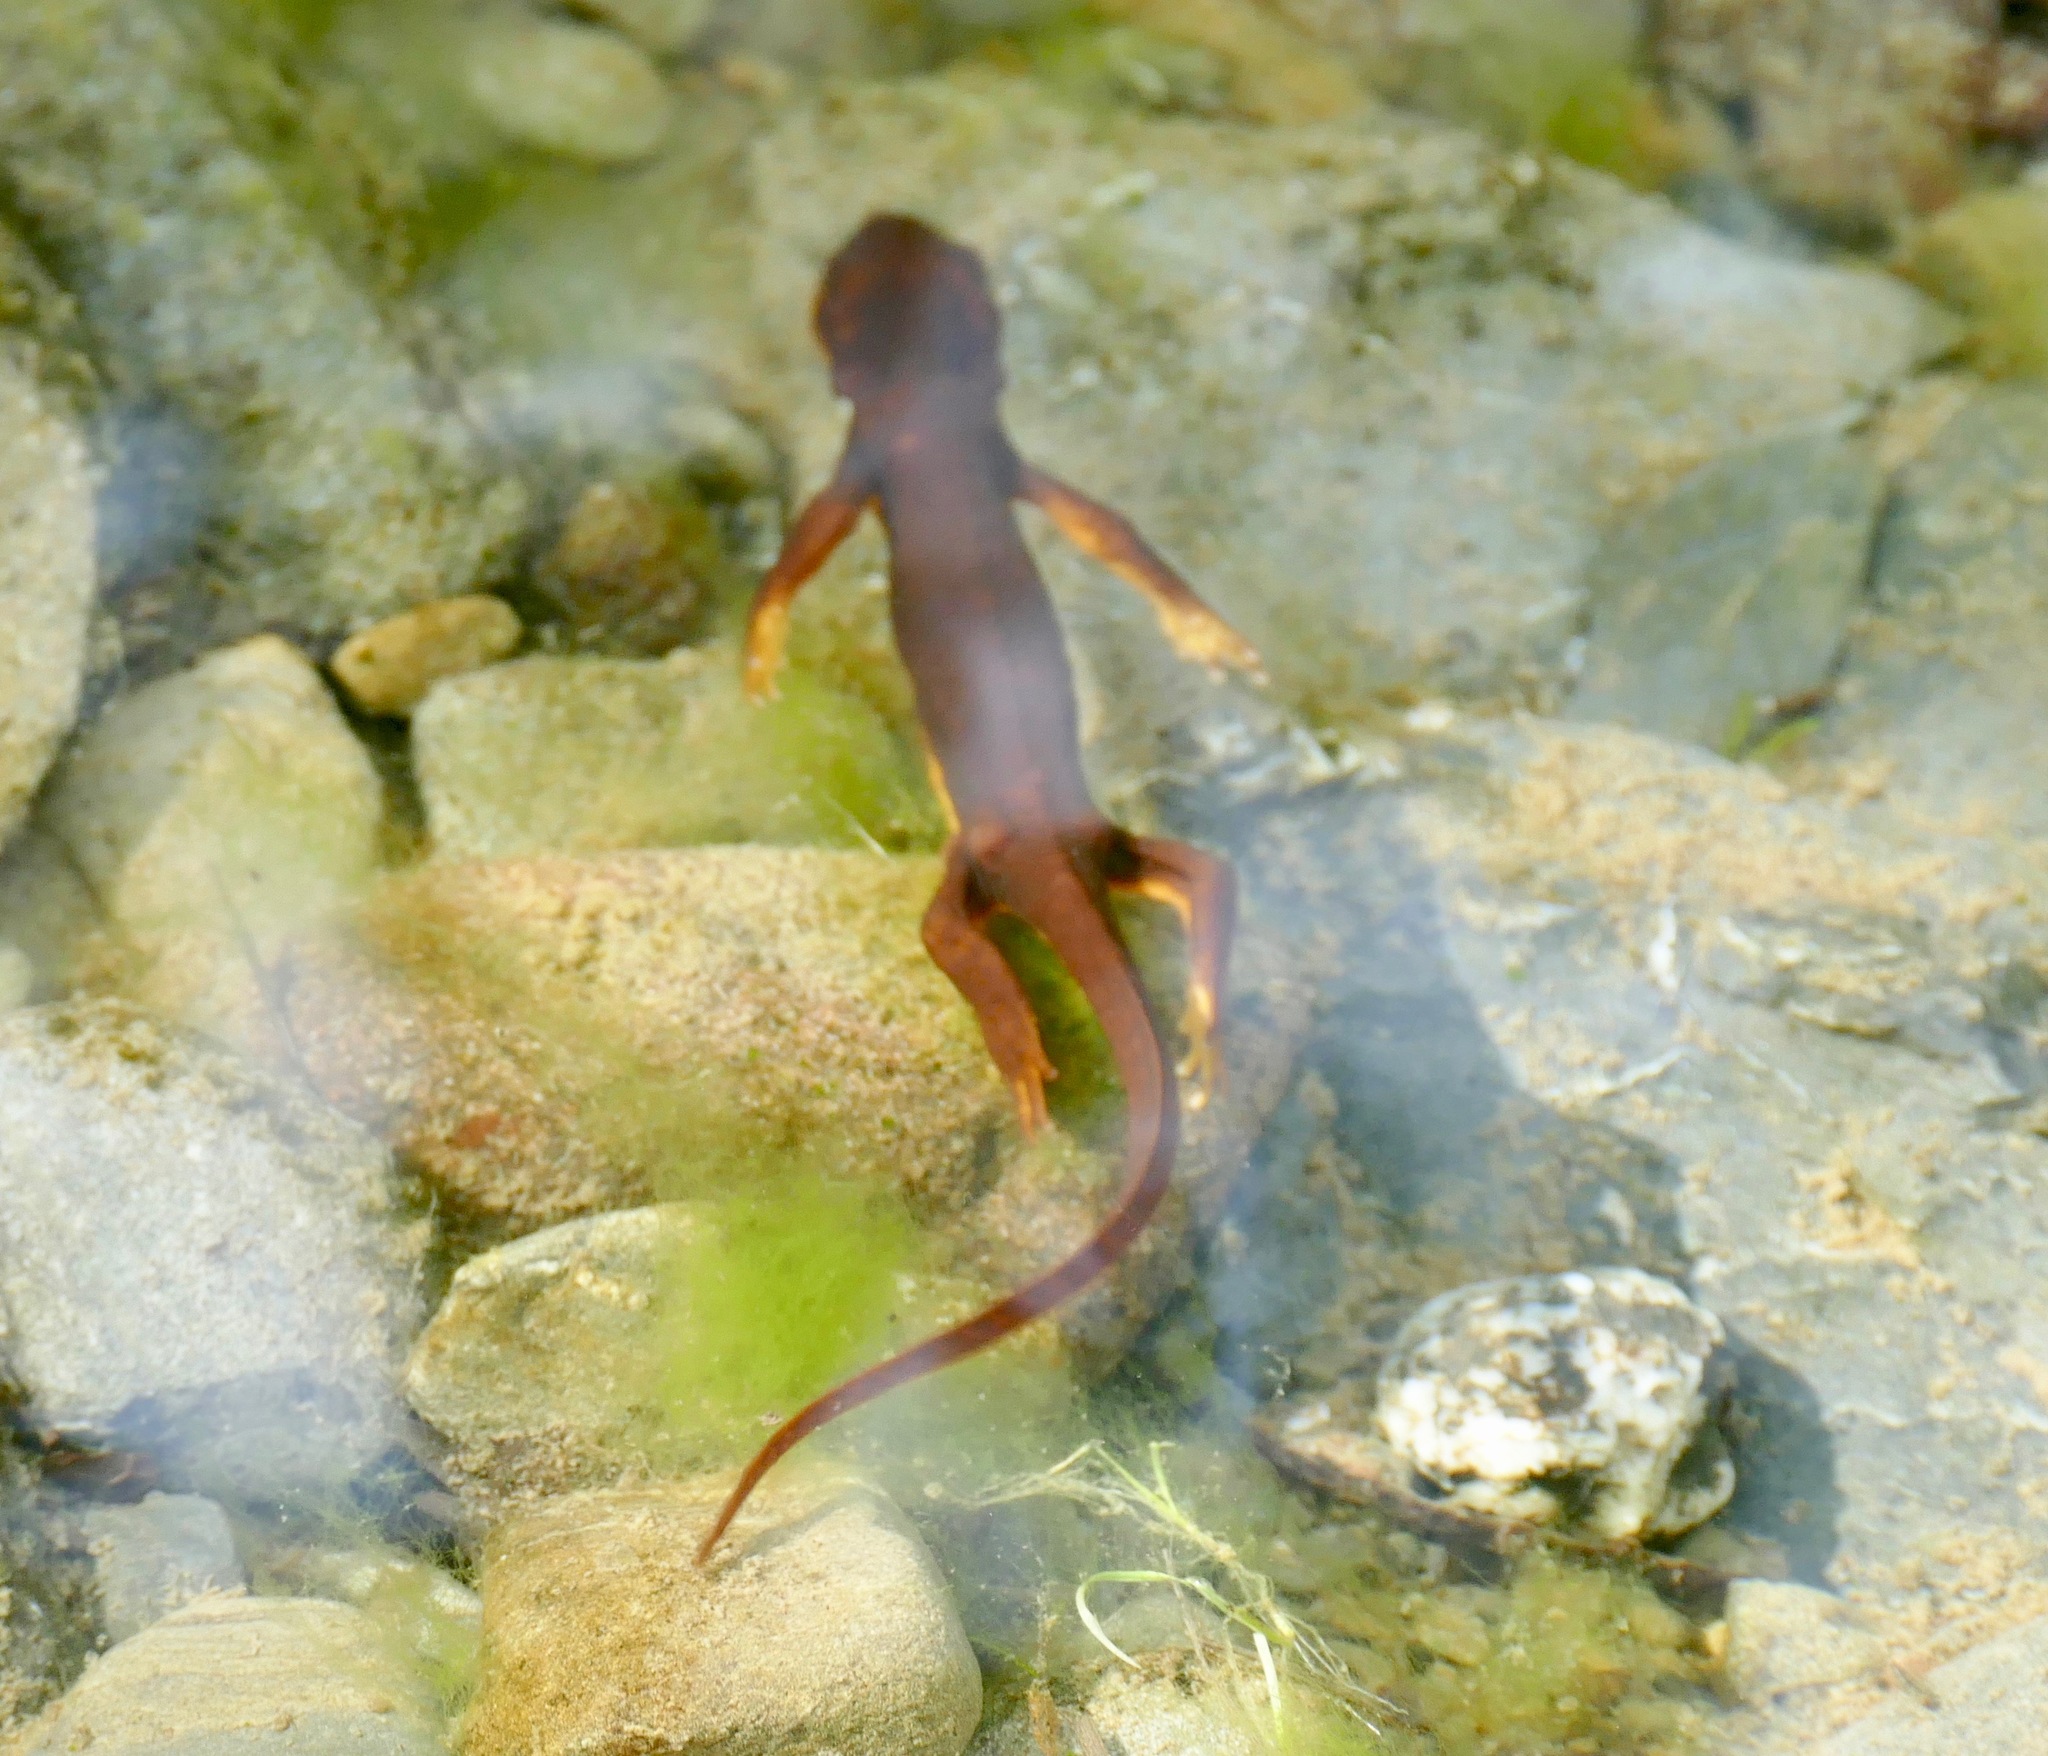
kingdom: Animalia
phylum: Chordata
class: Amphibia
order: Caudata
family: Salamandridae
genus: Taricha
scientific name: Taricha torosa
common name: California newt
